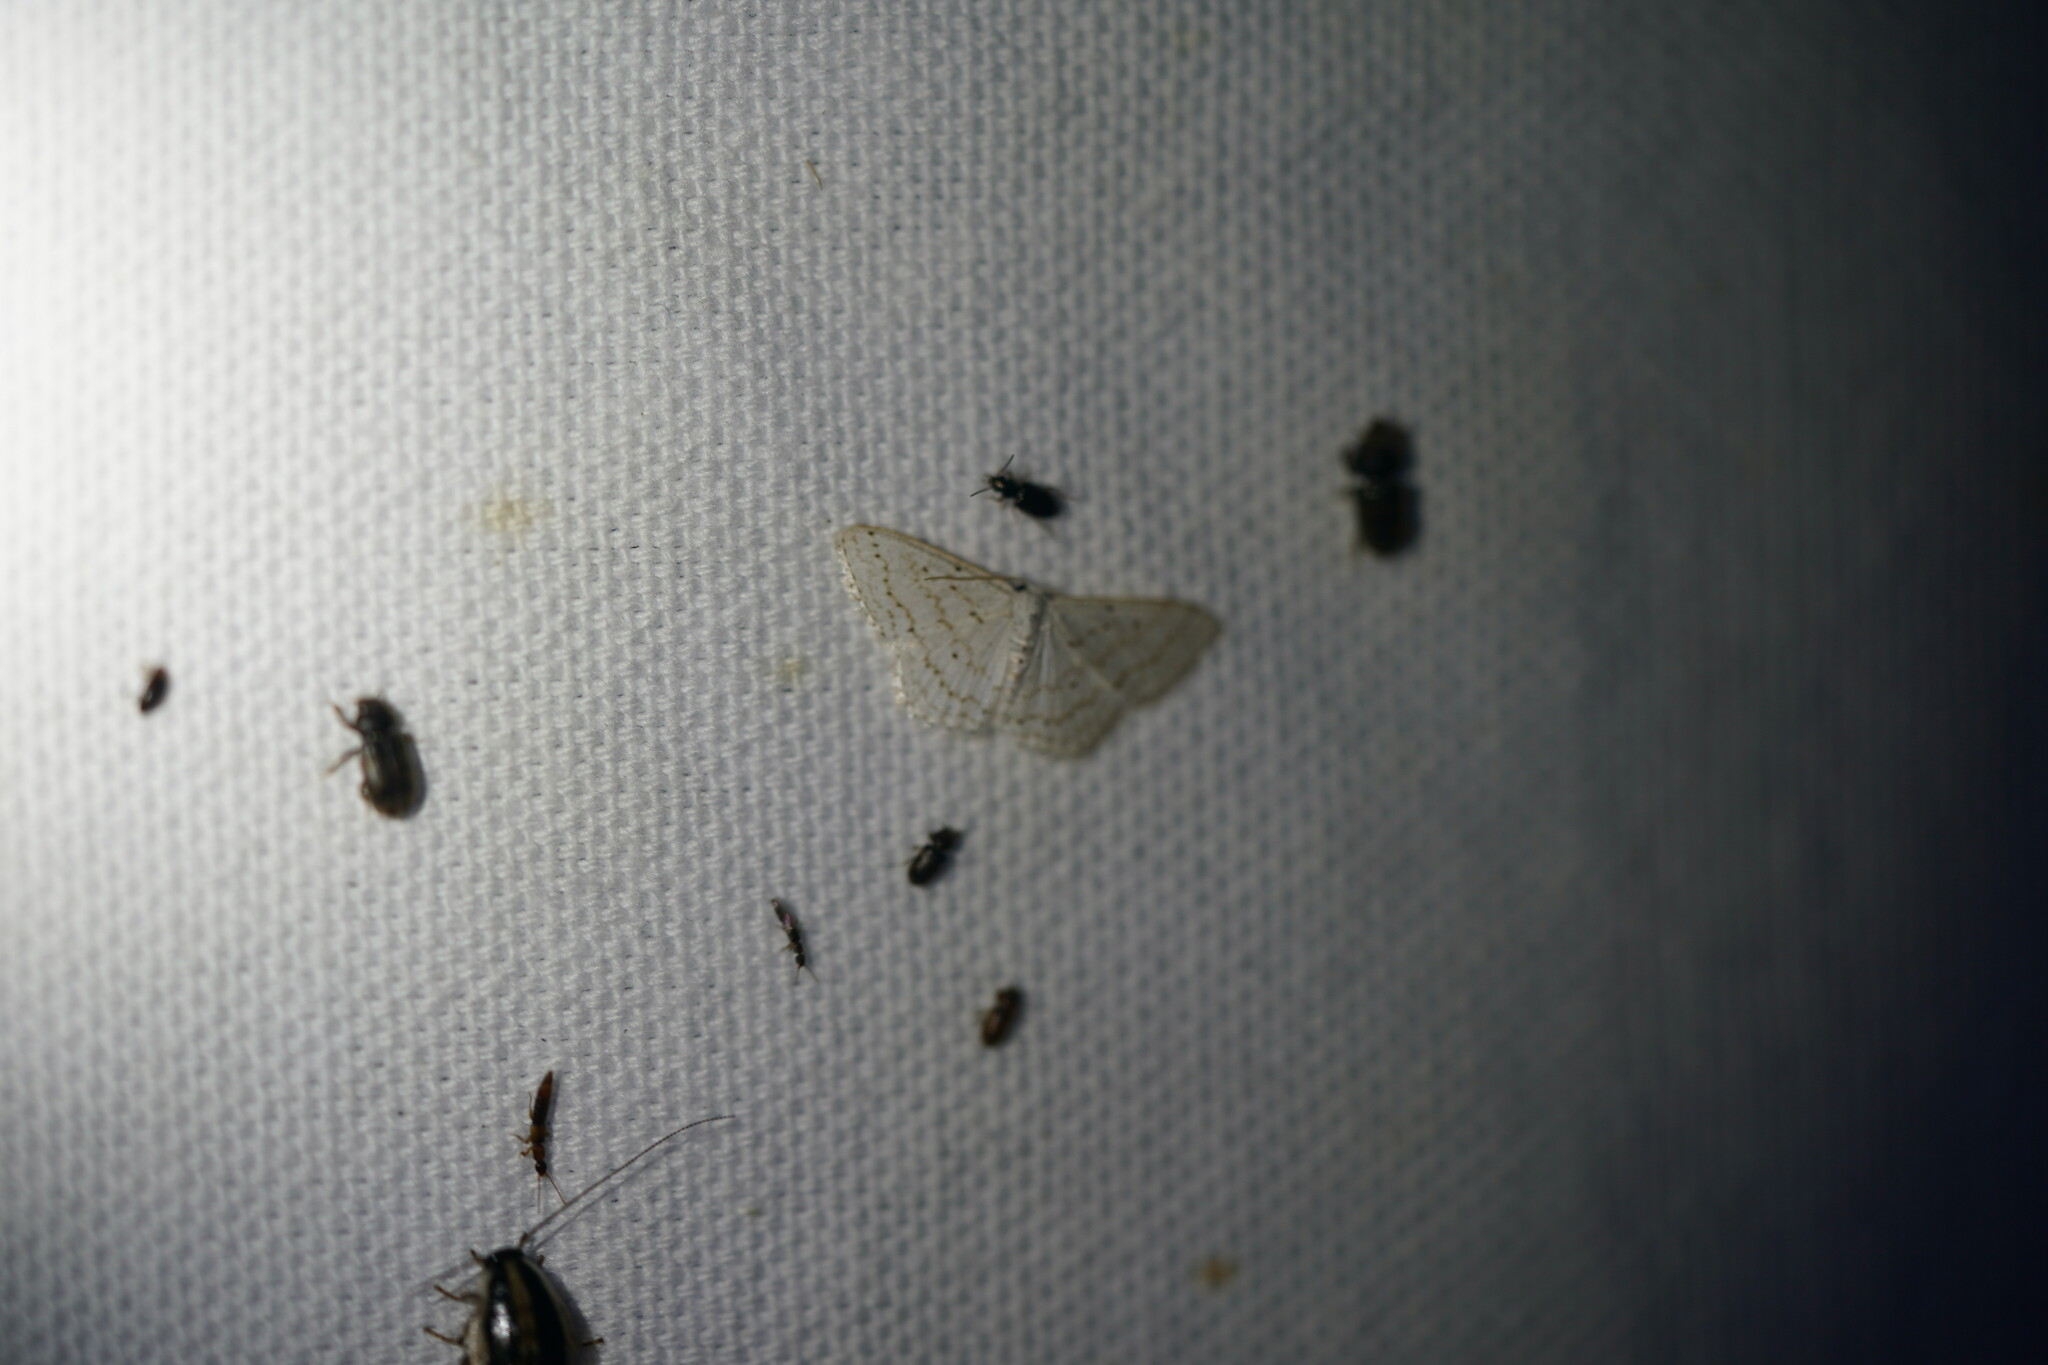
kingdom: Animalia
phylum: Arthropoda
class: Insecta
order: Lepidoptera
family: Geometridae
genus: Idaea
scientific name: Idaea tacturata
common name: Dot-lined wave
